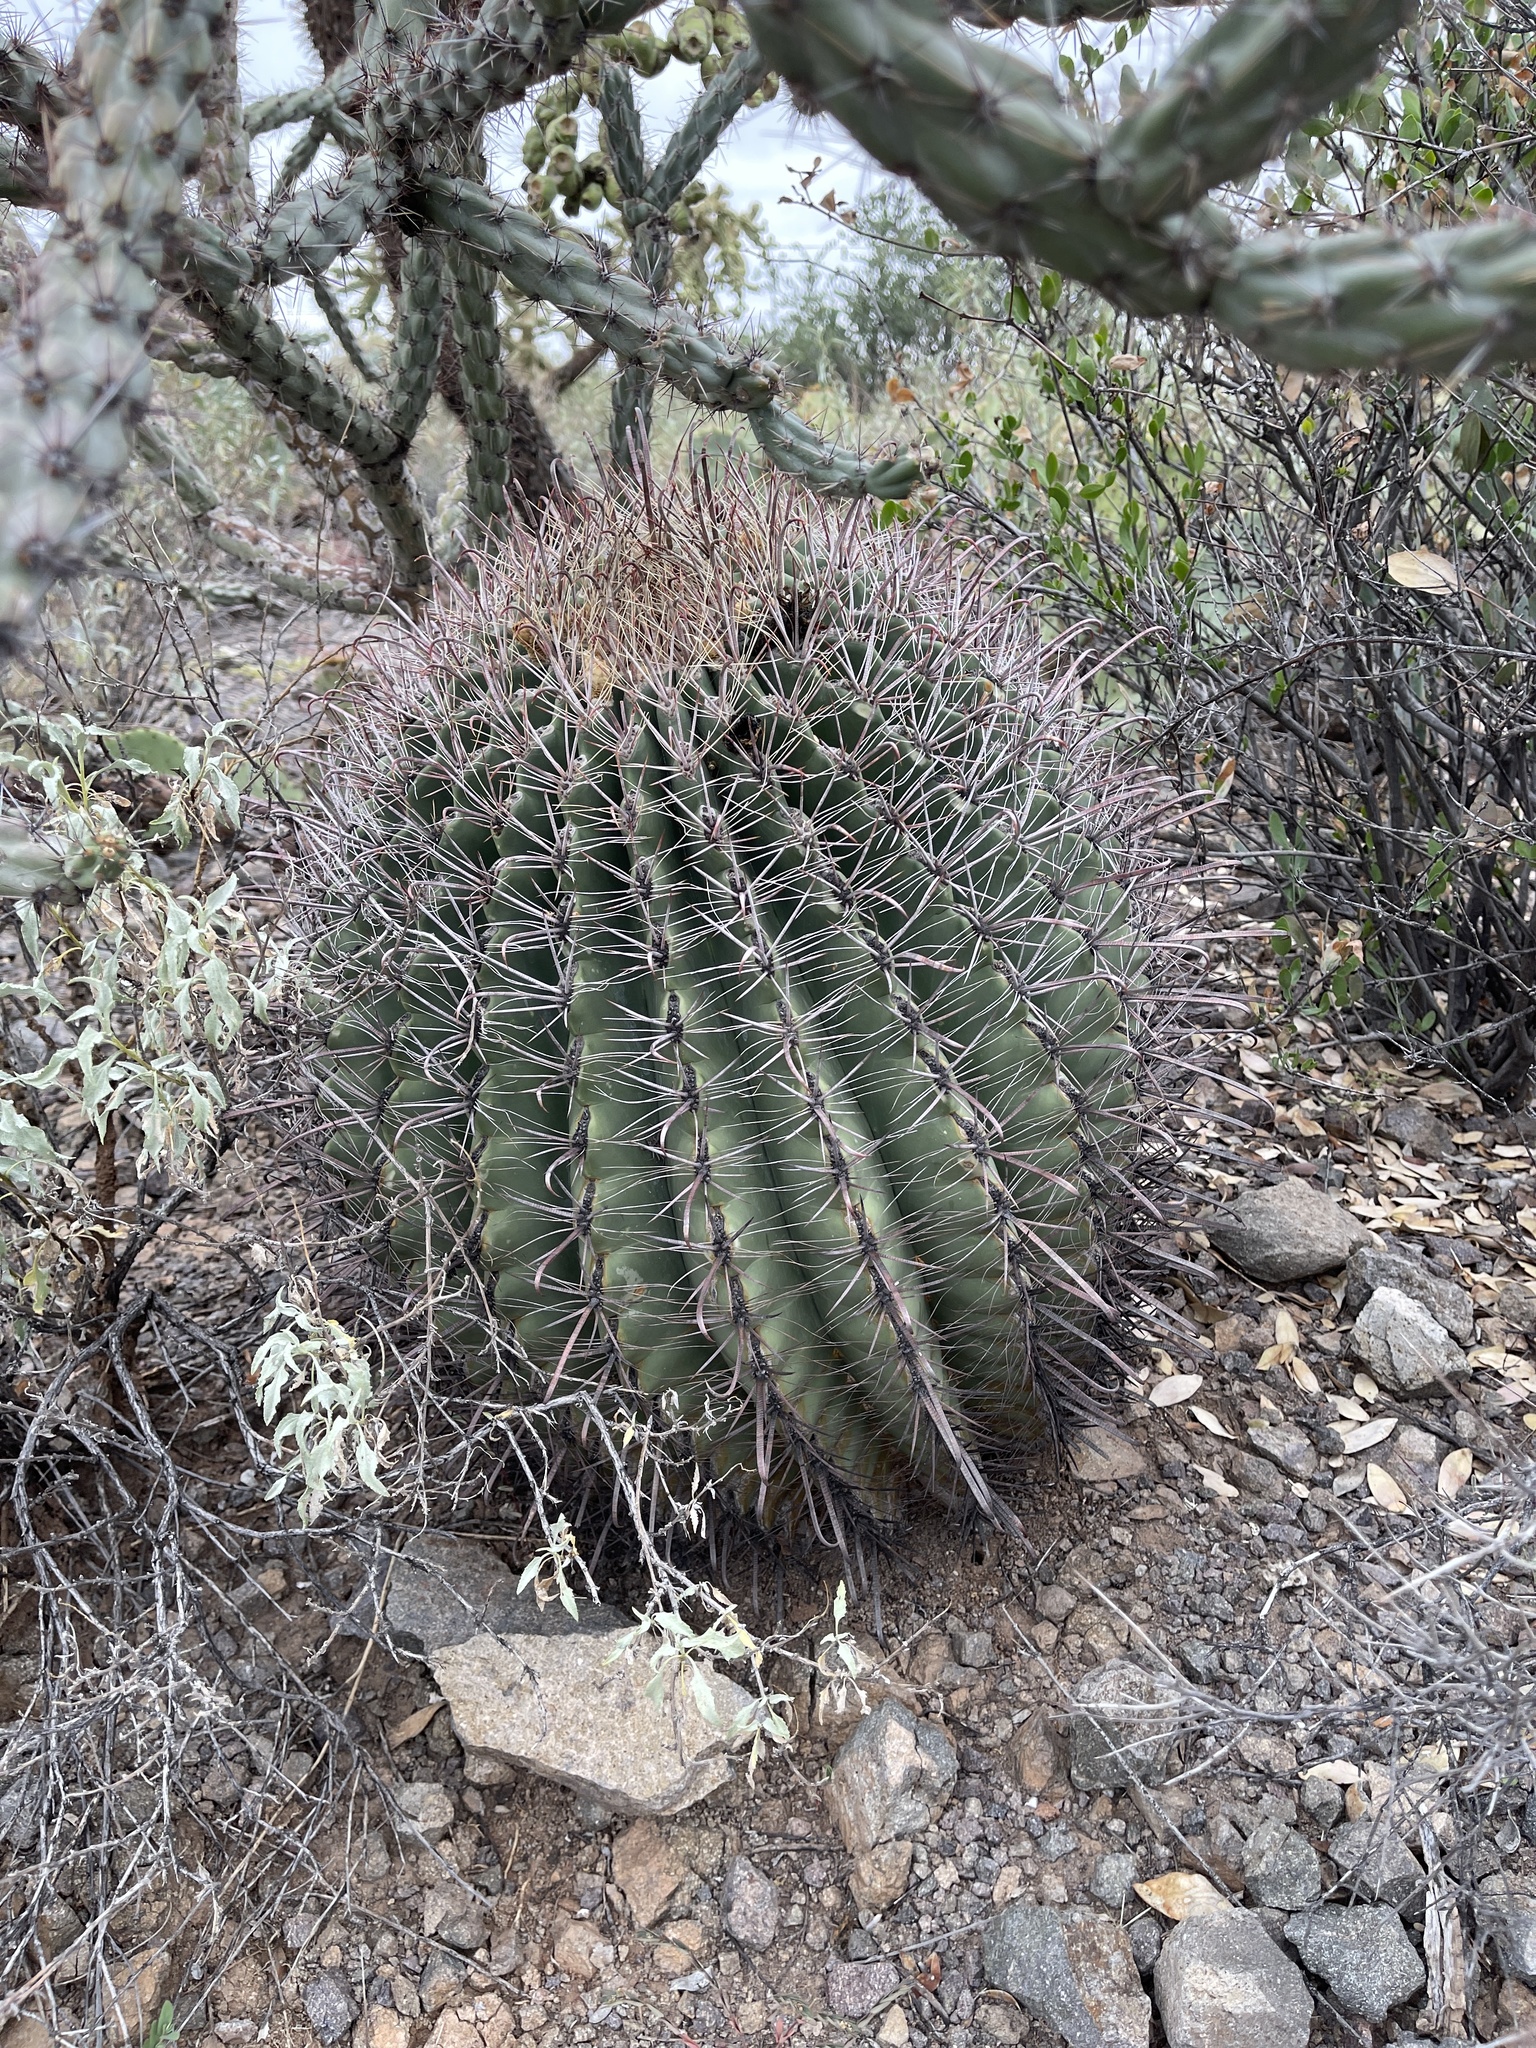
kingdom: Plantae
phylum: Tracheophyta
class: Magnoliopsida
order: Caryophyllales
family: Cactaceae
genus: Ferocactus
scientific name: Ferocactus wislizeni
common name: Candy barrel cactus
